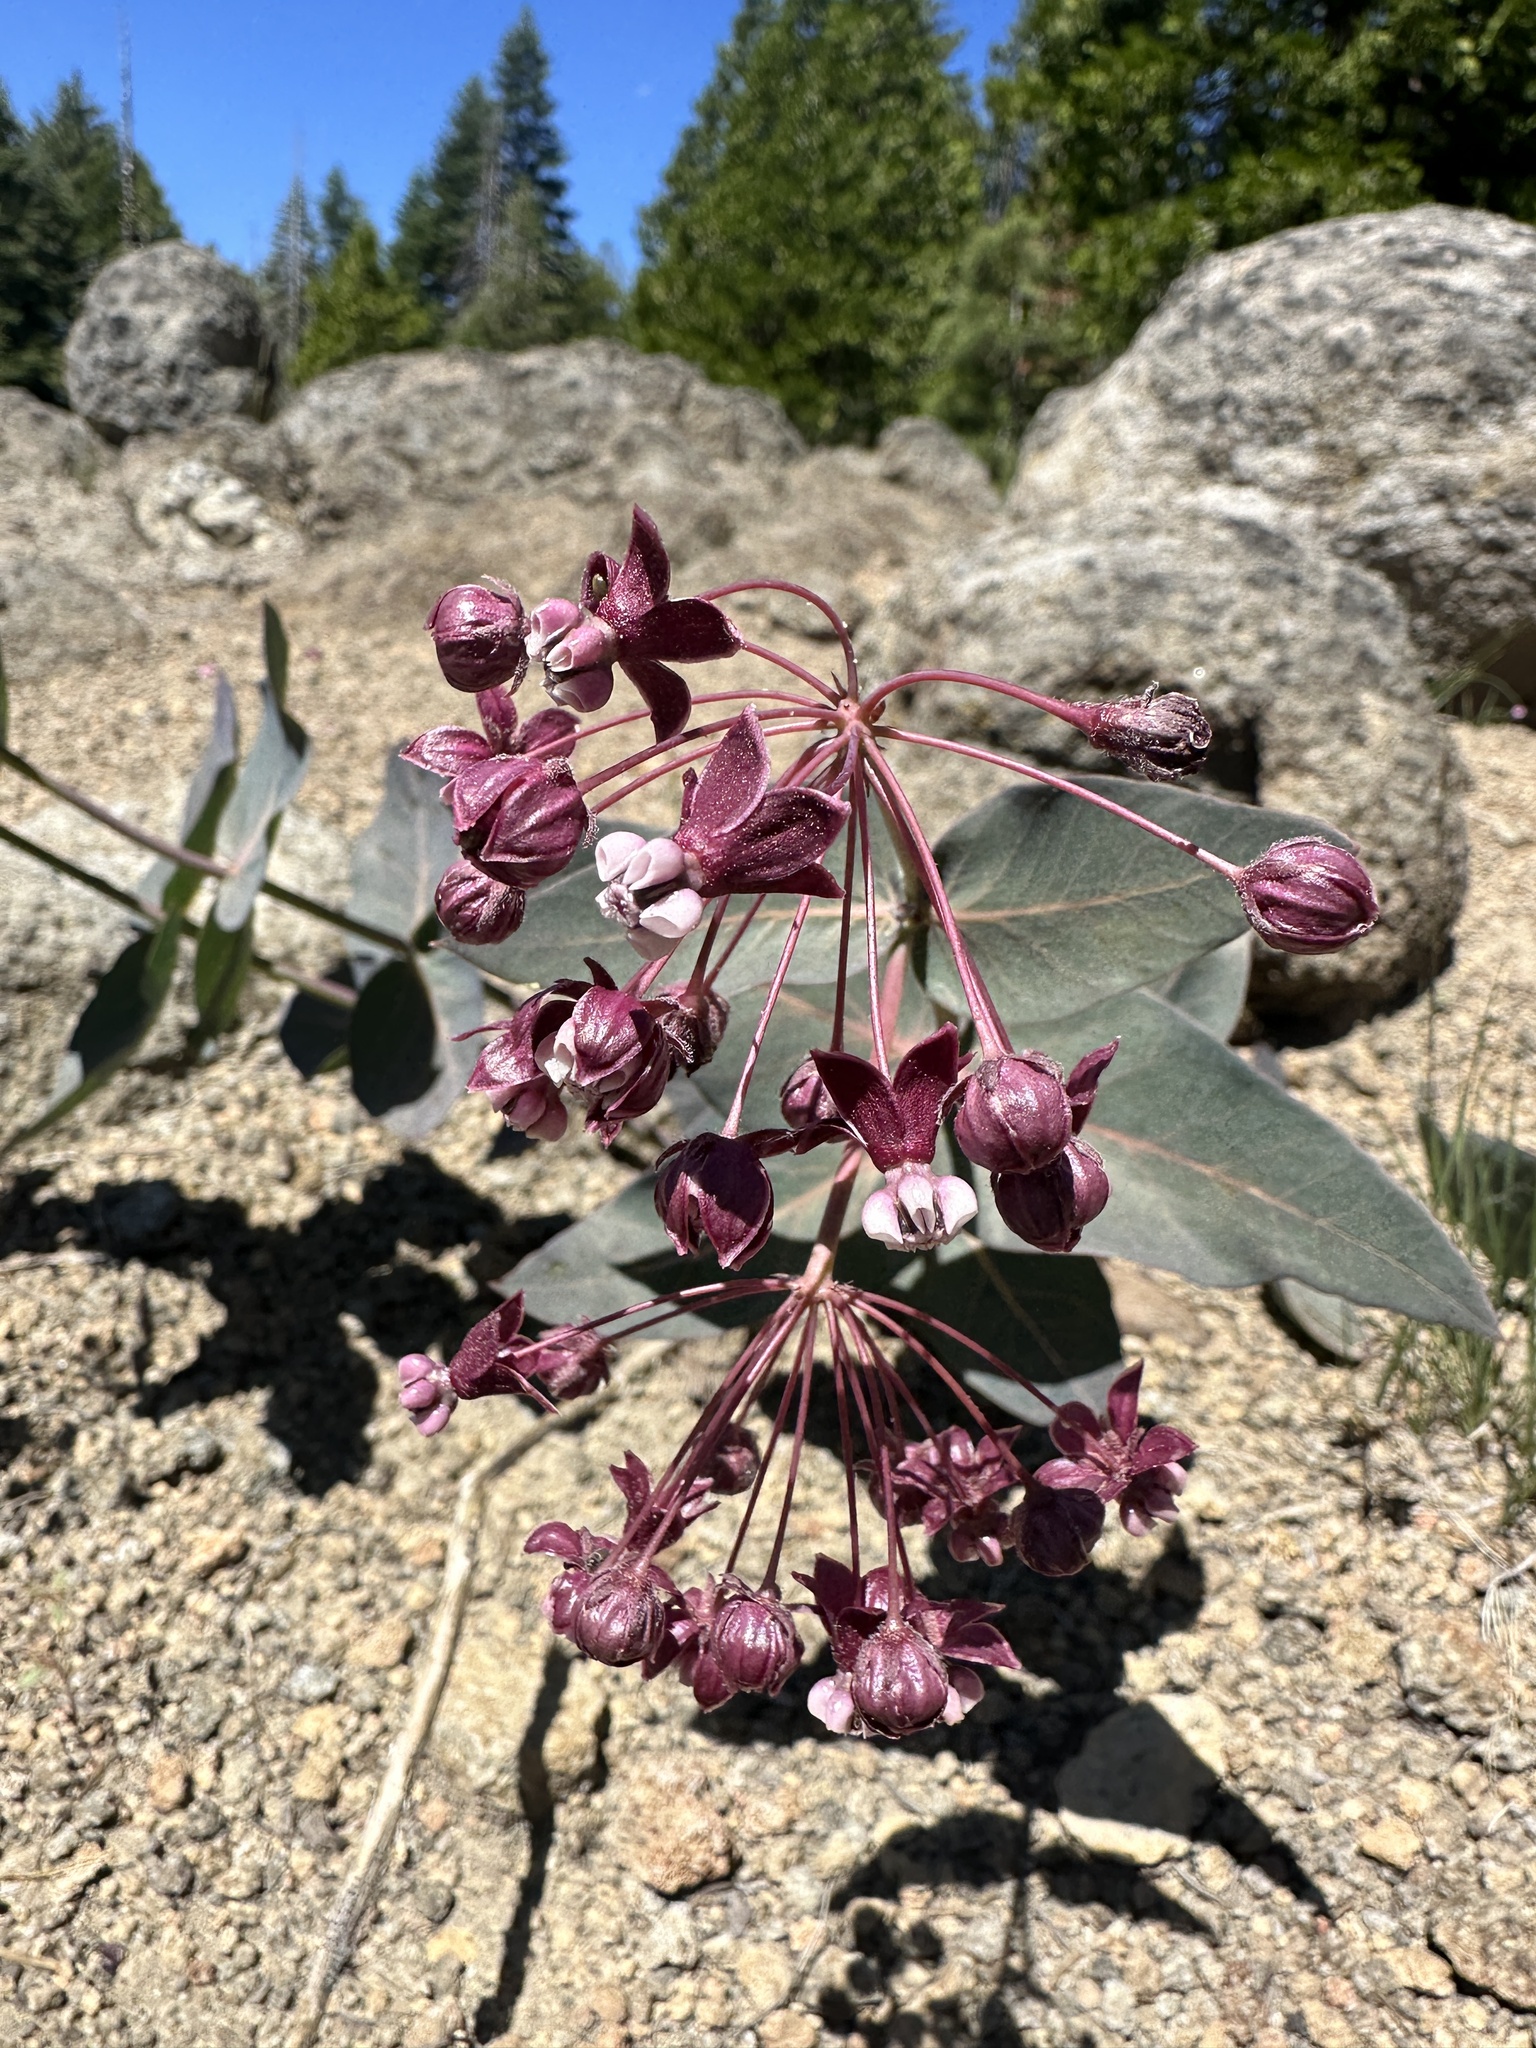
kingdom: Plantae
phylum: Tracheophyta
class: Magnoliopsida
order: Gentianales
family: Apocynaceae
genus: Asclepias
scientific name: Asclepias cordifolia
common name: Purple milkweed
